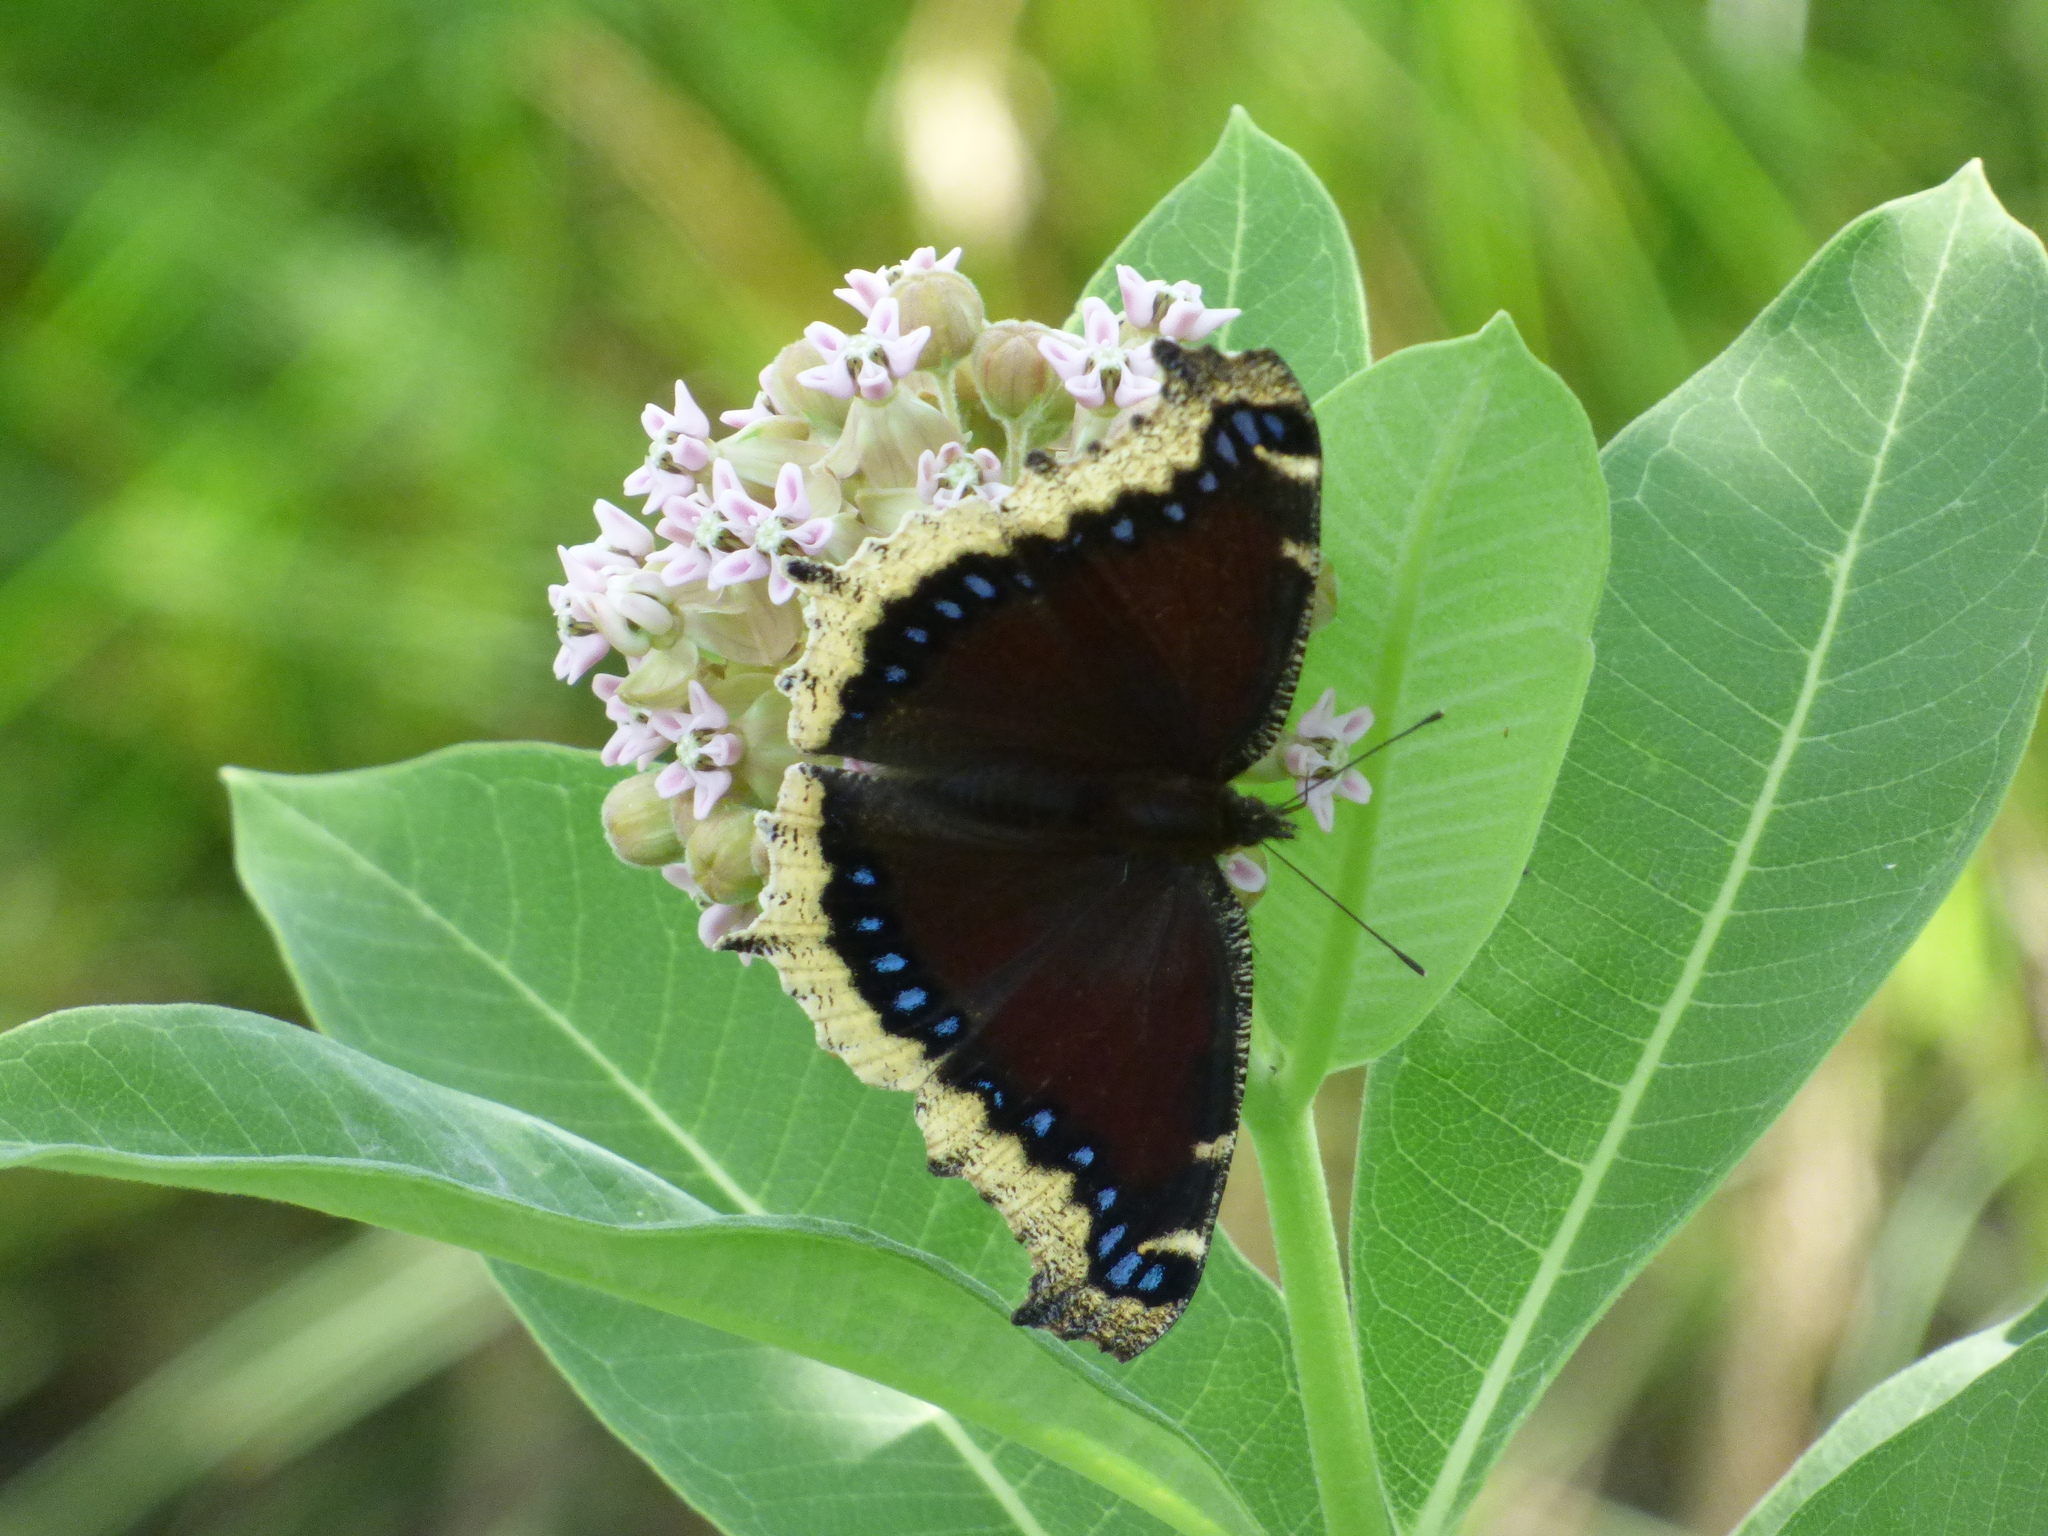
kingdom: Animalia
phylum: Arthropoda
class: Insecta
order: Lepidoptera
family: Nymphalidae
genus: Nymphalis
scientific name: Nymphalis antiopa
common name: Camberwell beauty
